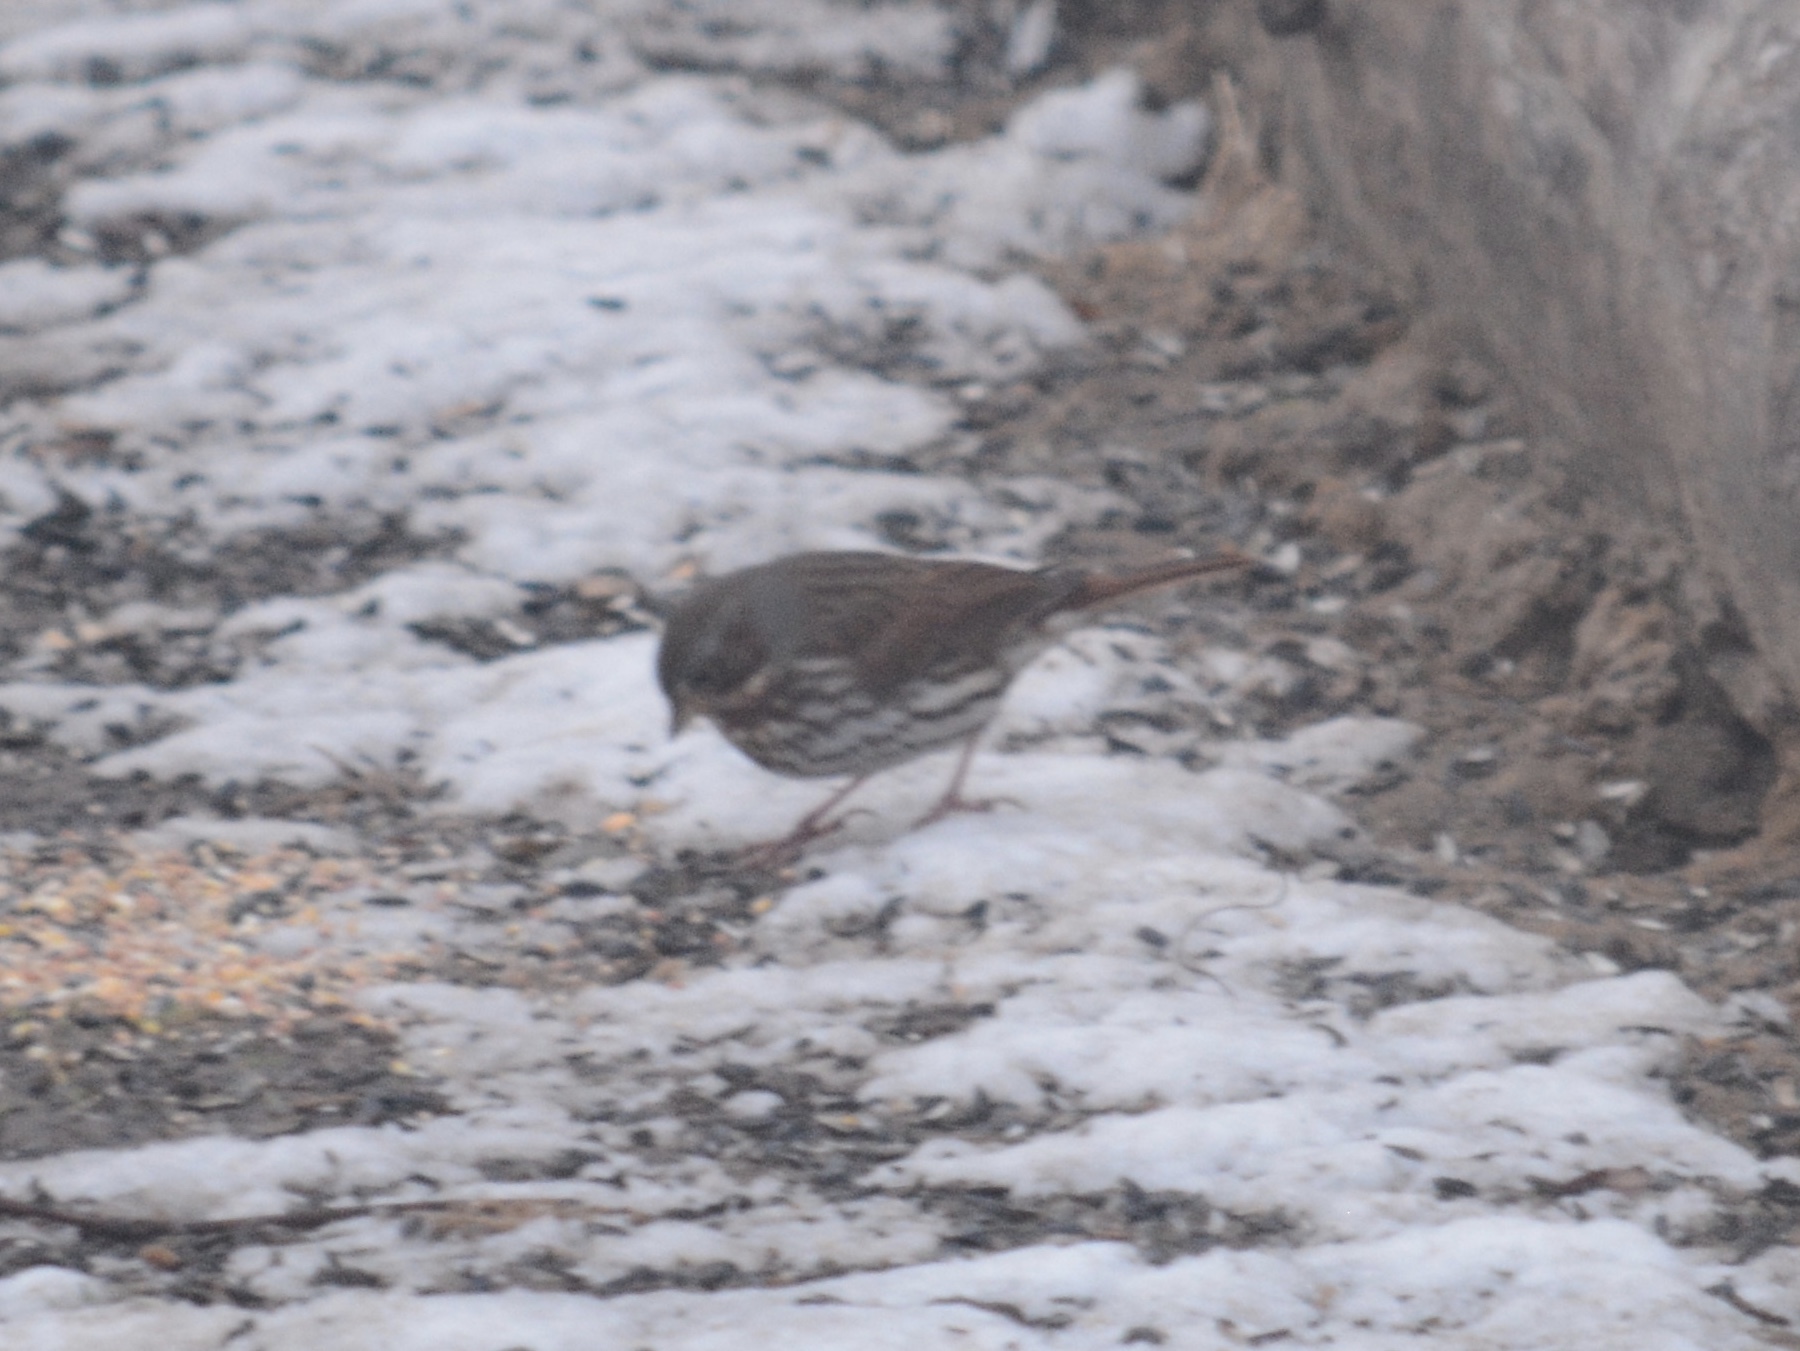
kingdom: Animalia
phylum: Chordata
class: Aves
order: Passeriformes
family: Passerellidae
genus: Passerella
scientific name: Passerella iliaca
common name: Fox sparrow
